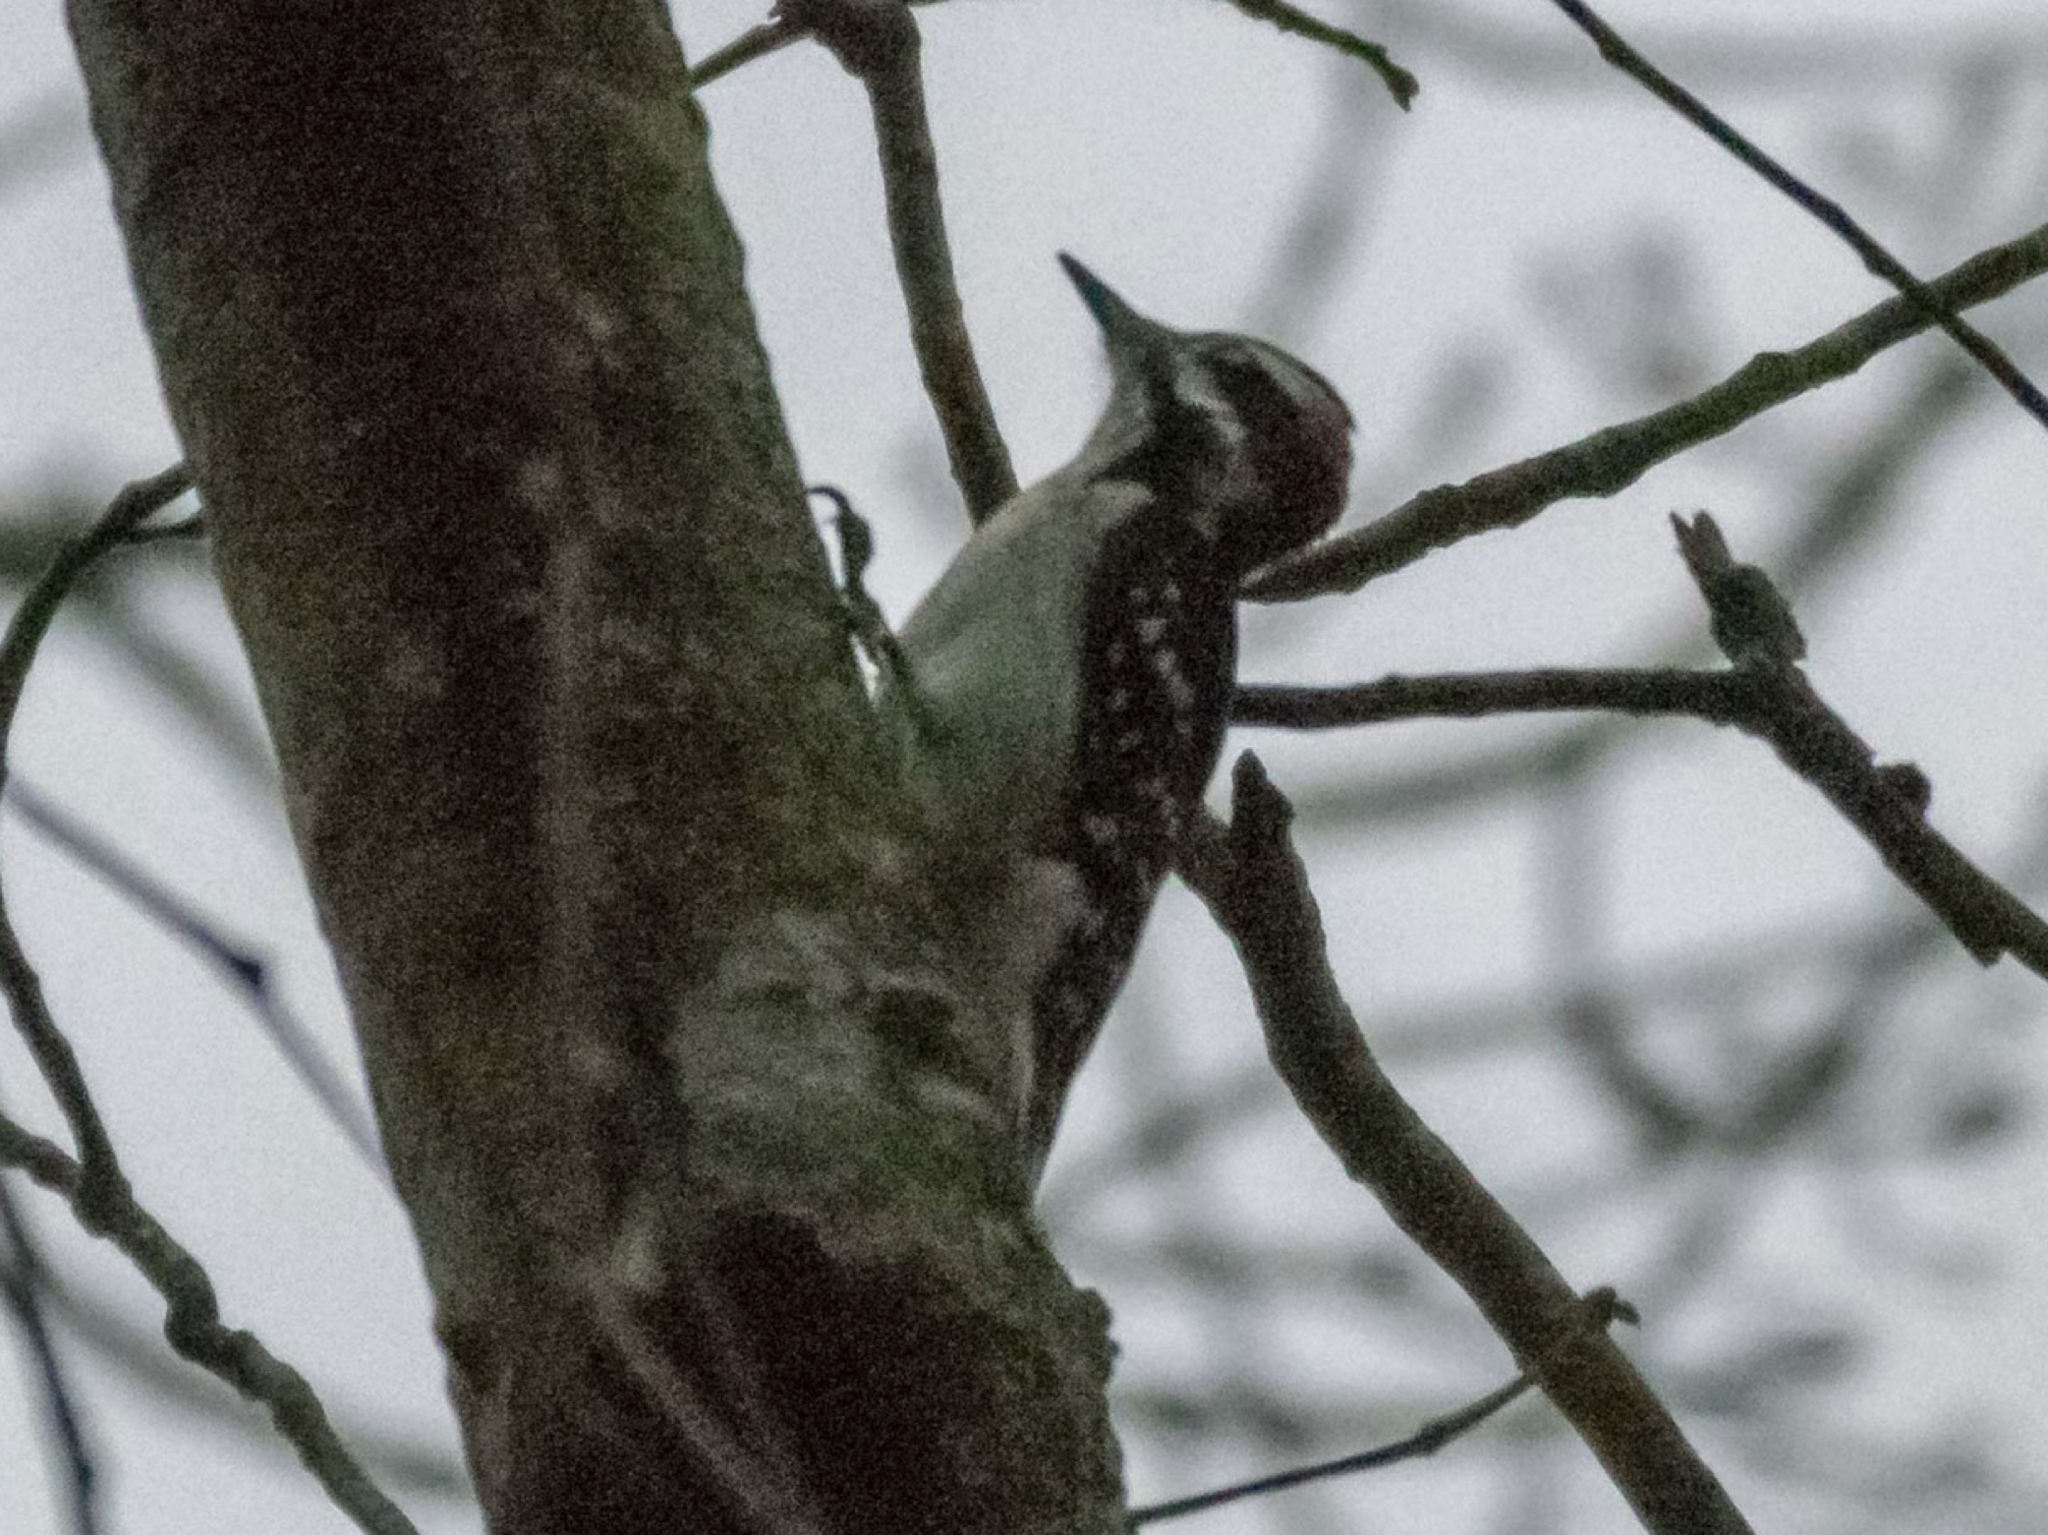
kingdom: Animalia
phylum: Chordata
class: Aves
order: Piciformes
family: Picidae
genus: Leuconotopicus
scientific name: Leuconotopicus villosus
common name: Hairy woodpecker
